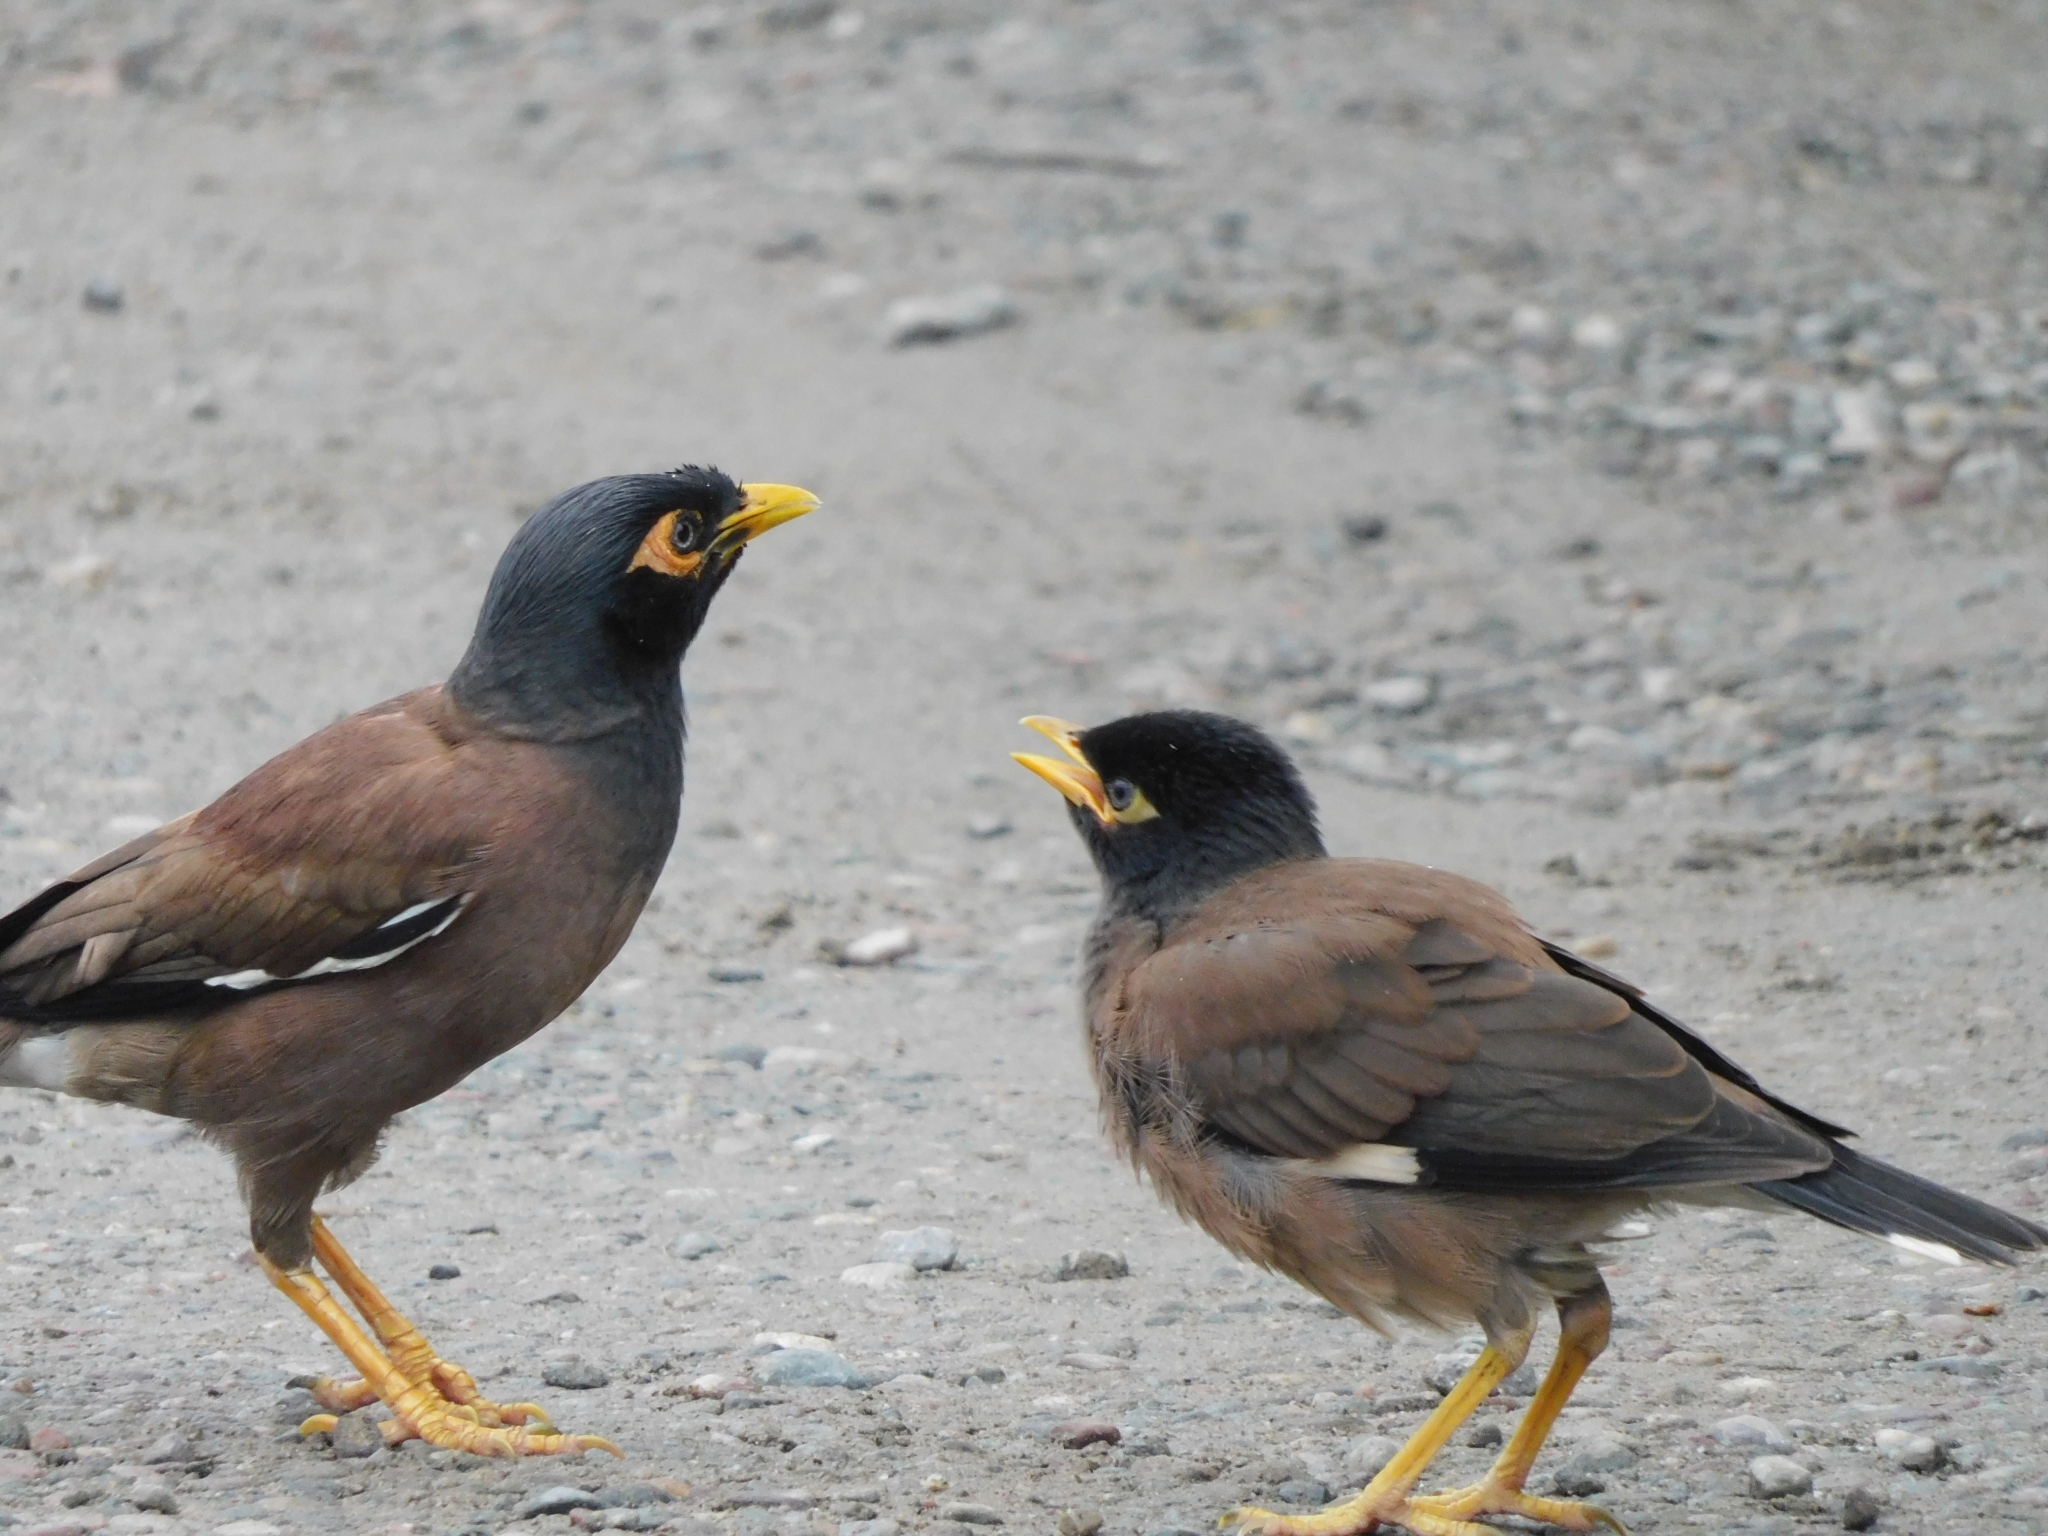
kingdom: Animalia
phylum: Chordata
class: Aves
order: Passeriformes
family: Sturnidae
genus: Acridotheres
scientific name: Acridotheres tristis
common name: Common myna
